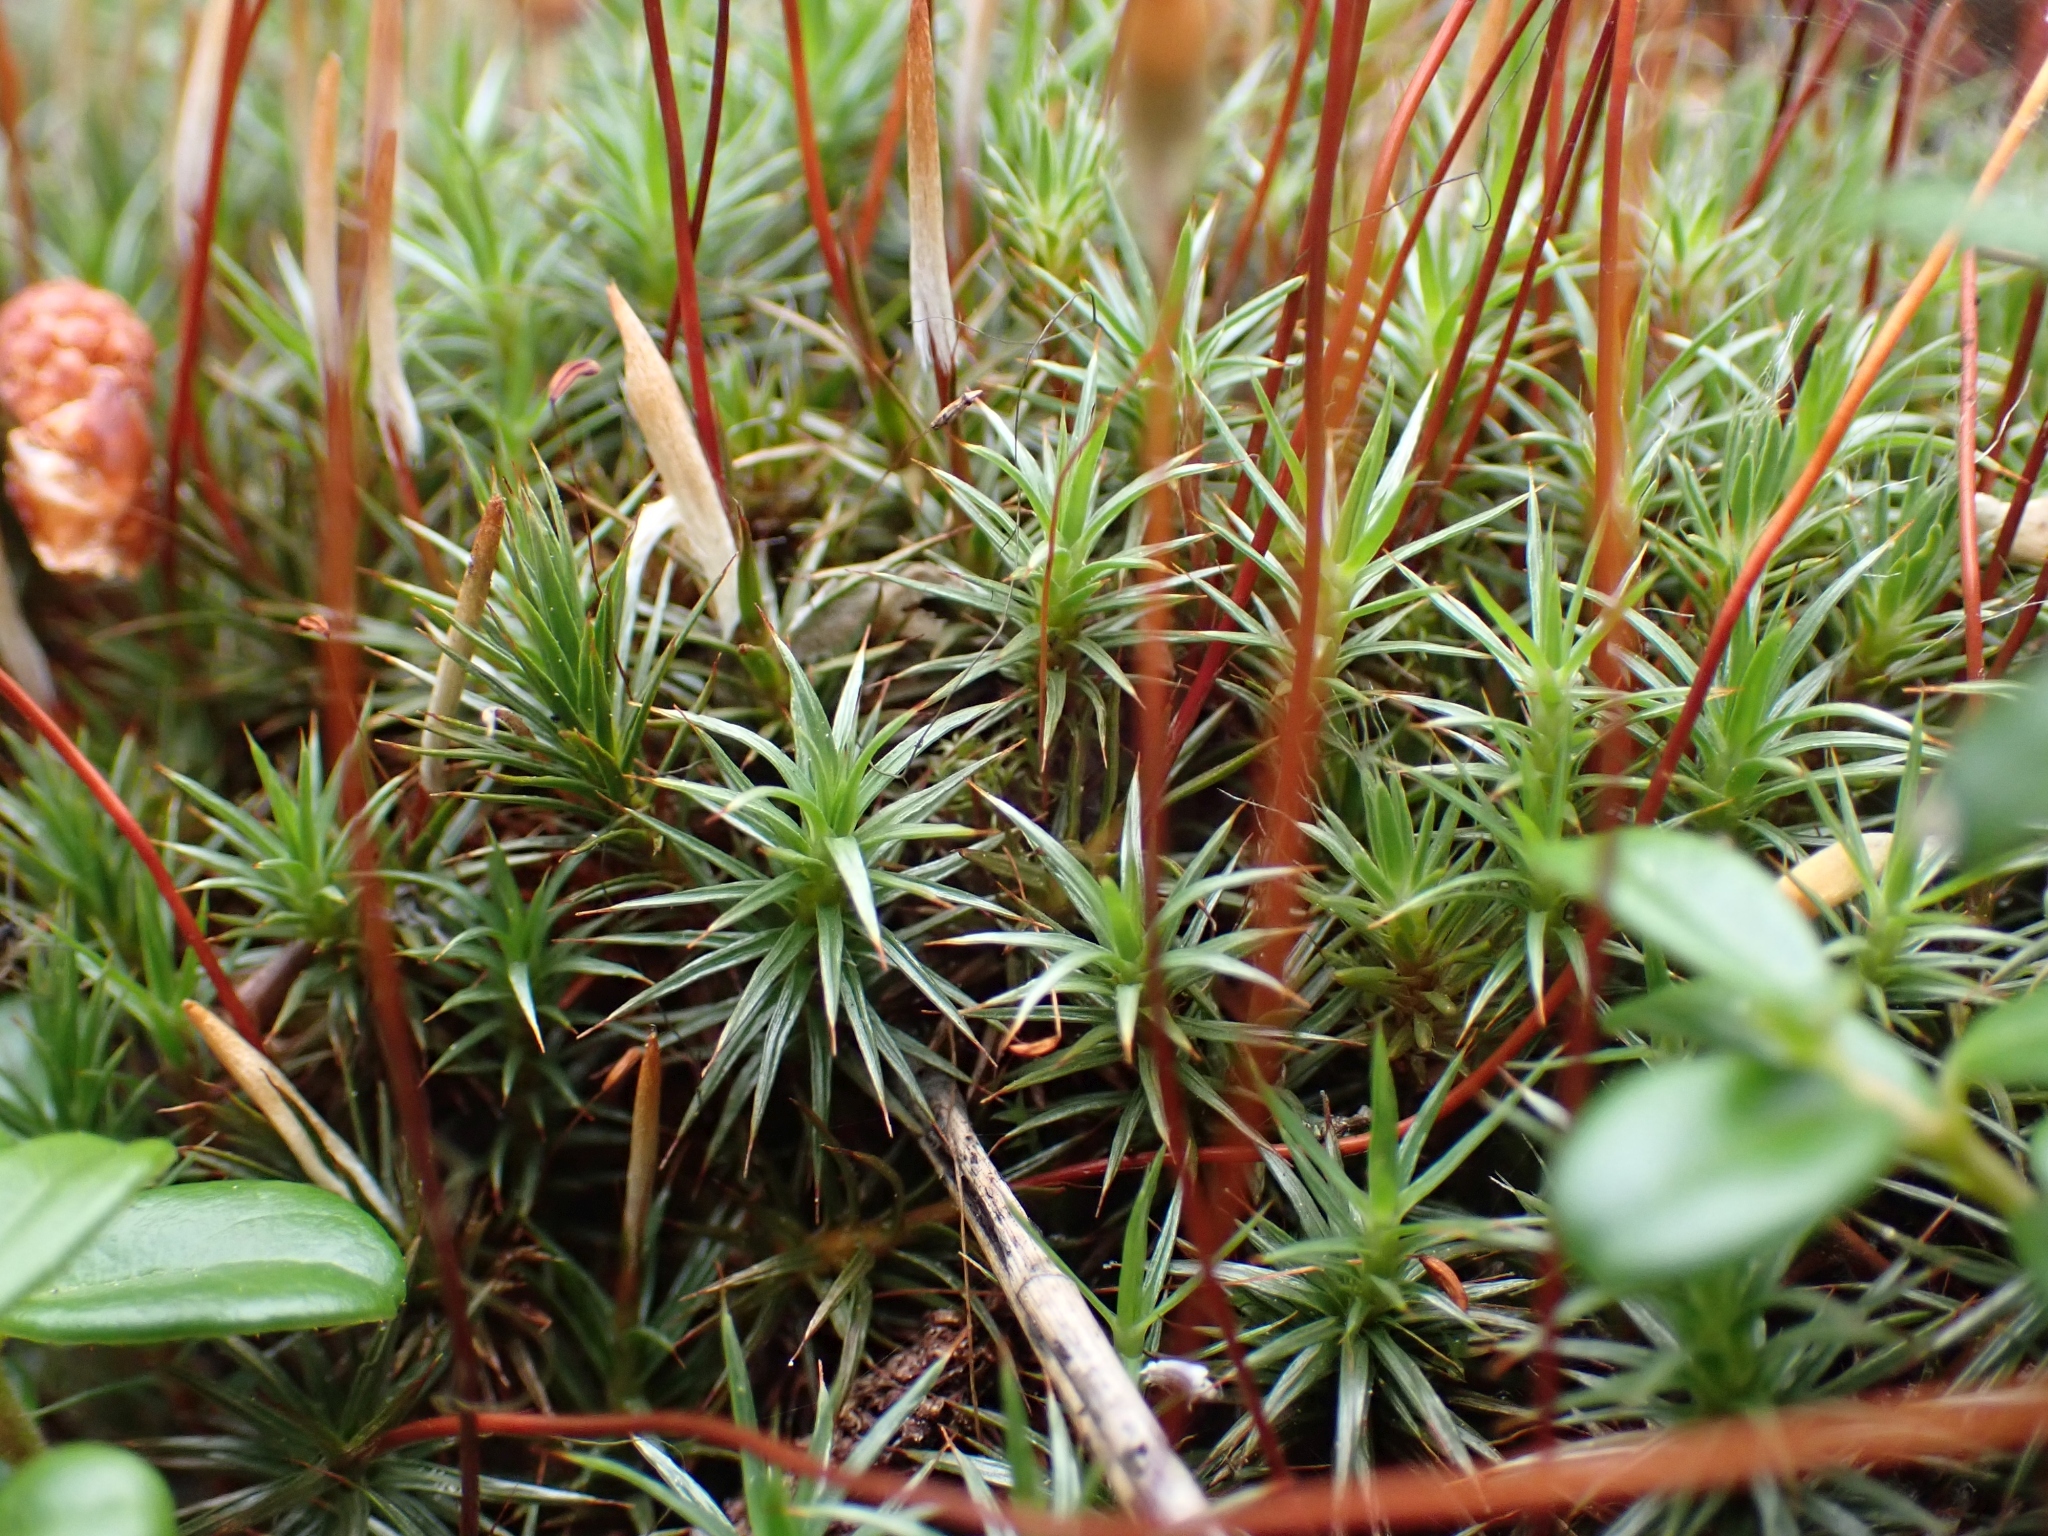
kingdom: Plantae
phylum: Bryophyta
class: Polytrichopsida
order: Polytrichales
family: Polytrichaceae
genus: Polytrichum
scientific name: Polytrichum juniperinum
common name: Juniper haircap moss
